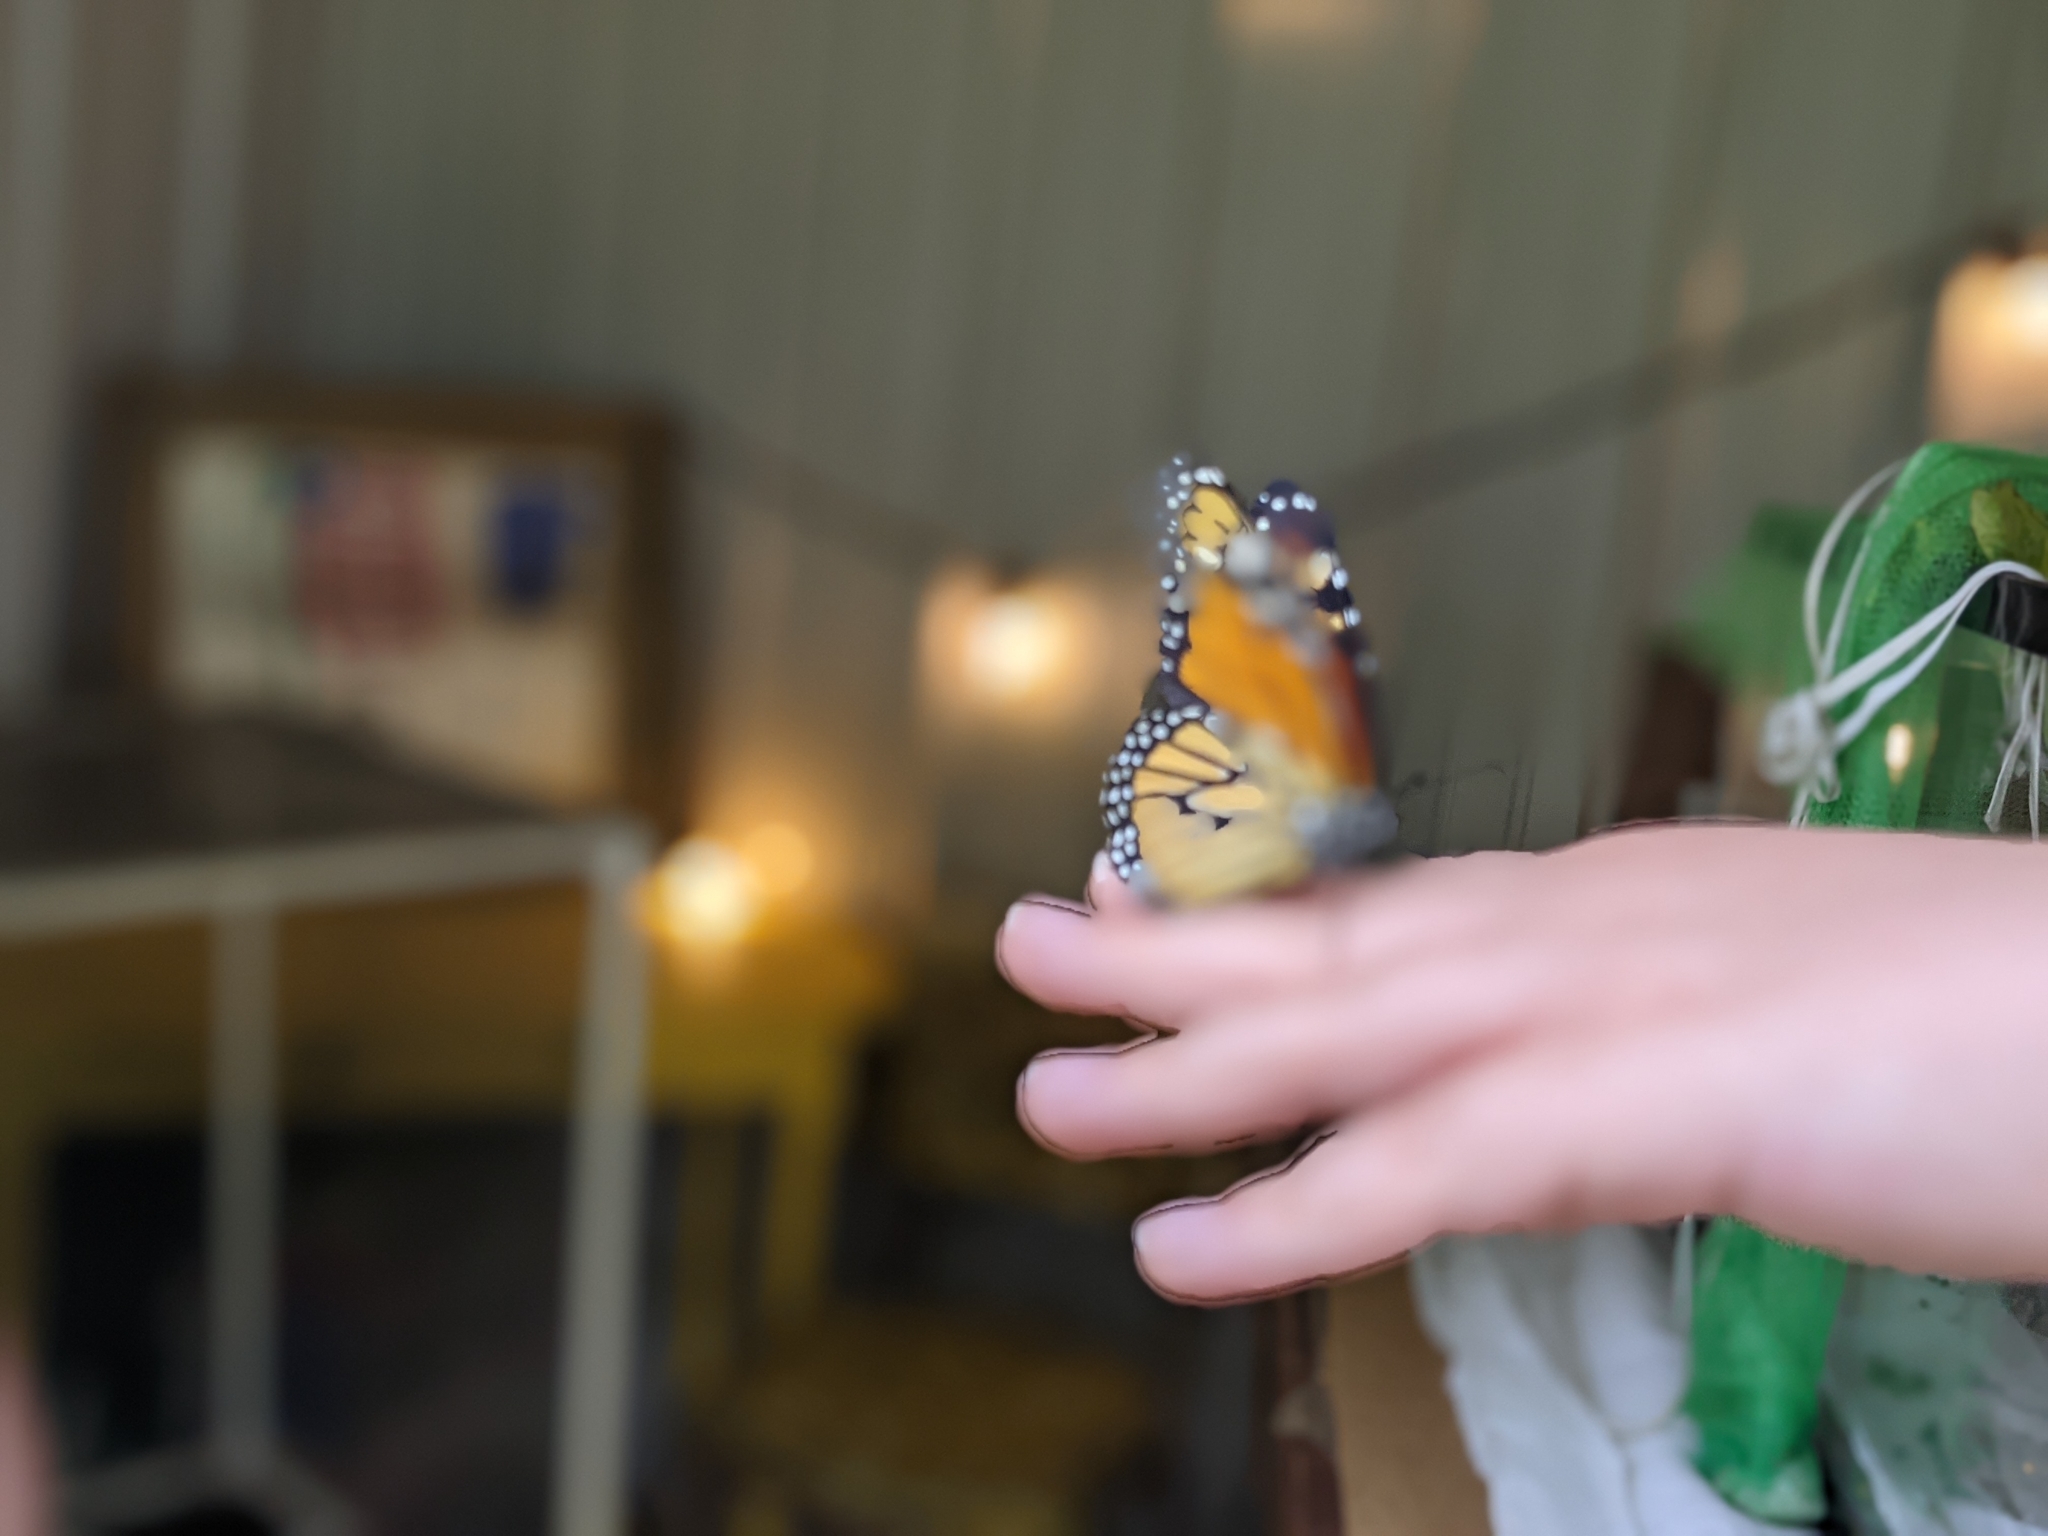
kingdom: Animalia
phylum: Arthropoda
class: Insecta
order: Lepidoptera
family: Nymphalidae
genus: Danaus
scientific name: Danaus plexippus
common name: Monarch
